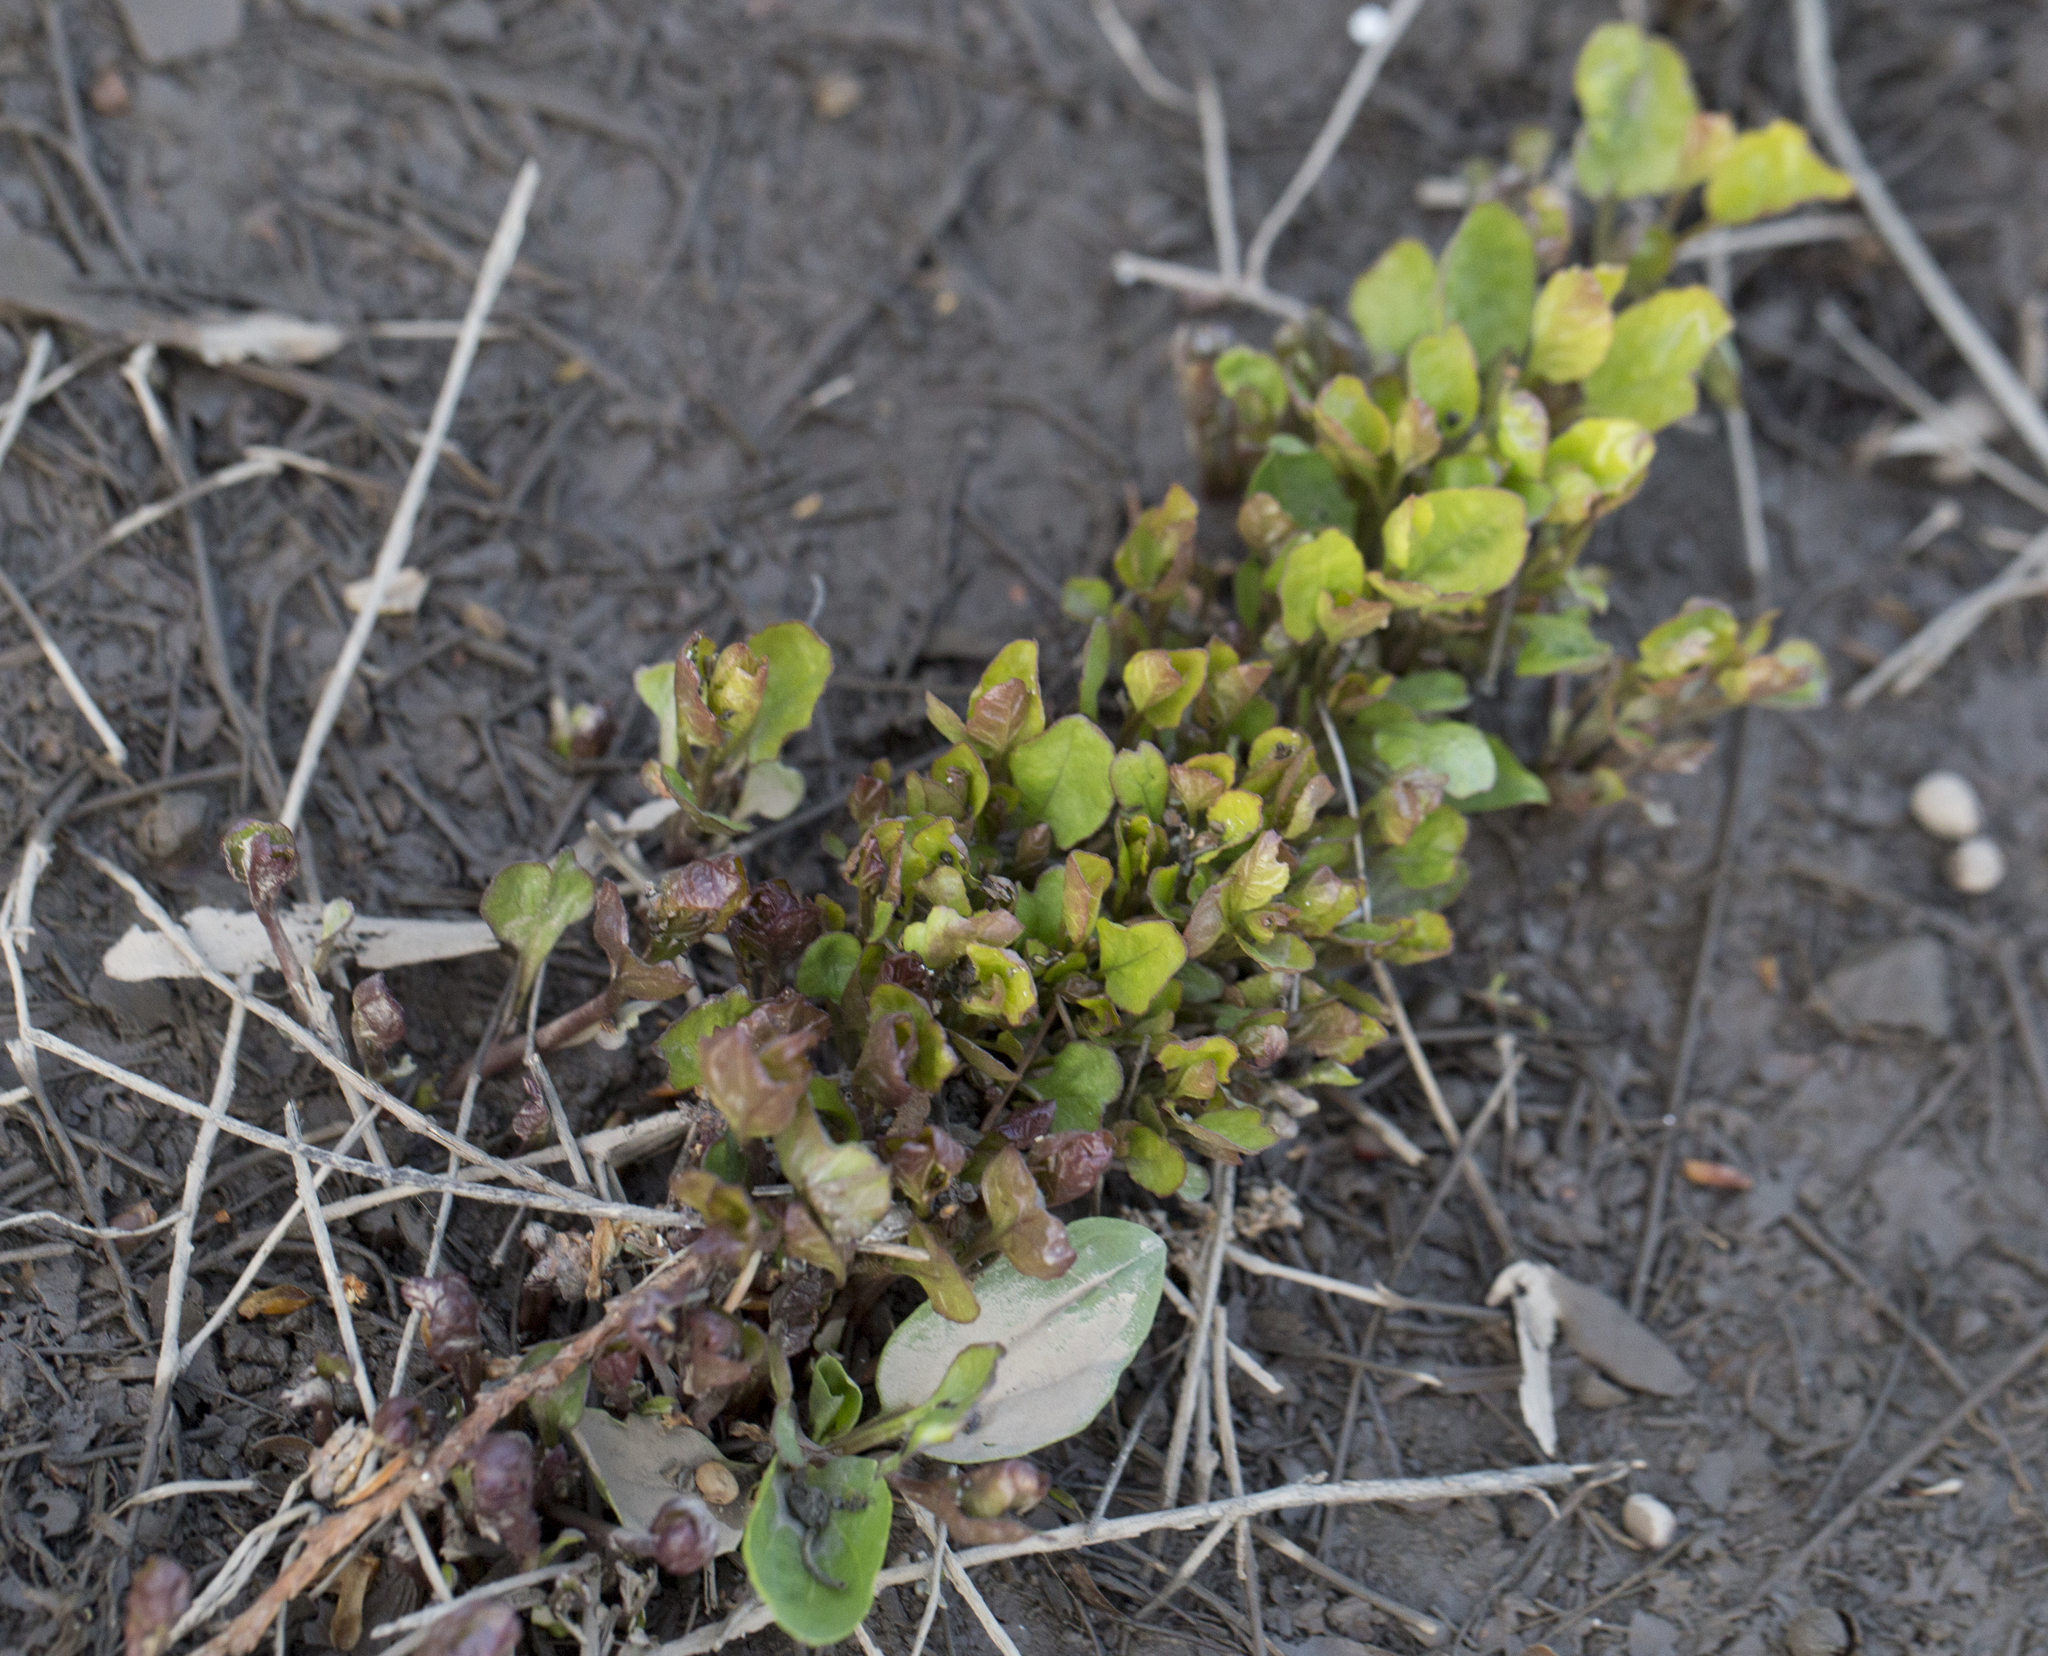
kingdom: Plantae
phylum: Tracheophyta
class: Magnoliopsida
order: Solanales
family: Convolvulaceae
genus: Convolvulus
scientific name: Convolvulus arvensis
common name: Field bindweed
